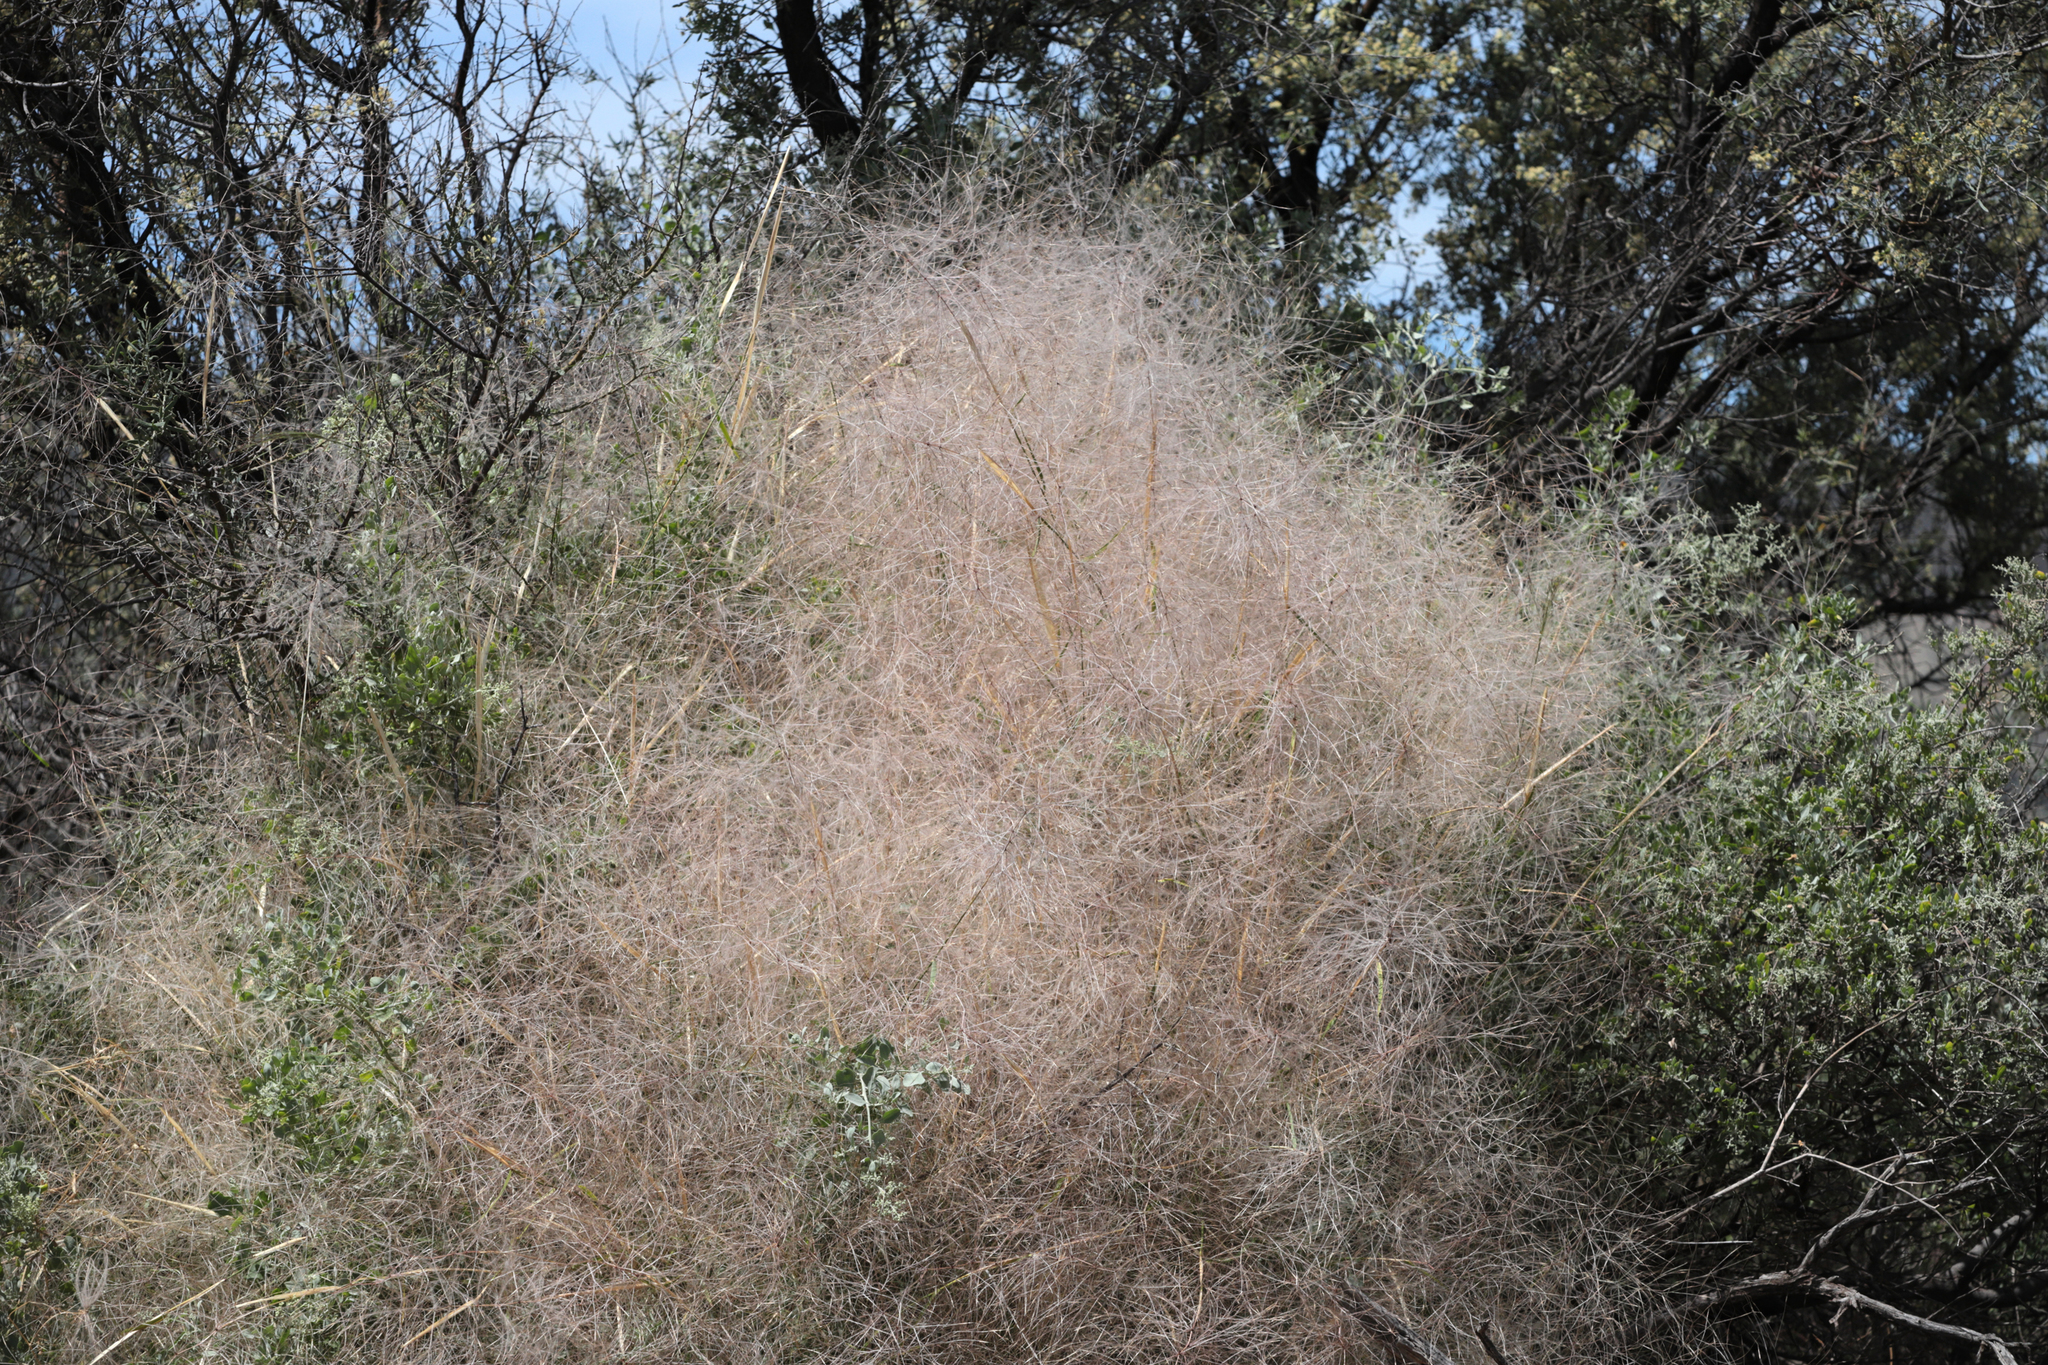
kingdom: Plantae
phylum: Tracheophyta
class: Liliopsida
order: Poales
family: Poaceae
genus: Austrostipa
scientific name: Austrostipa elegantissima
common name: Feather spear grass
